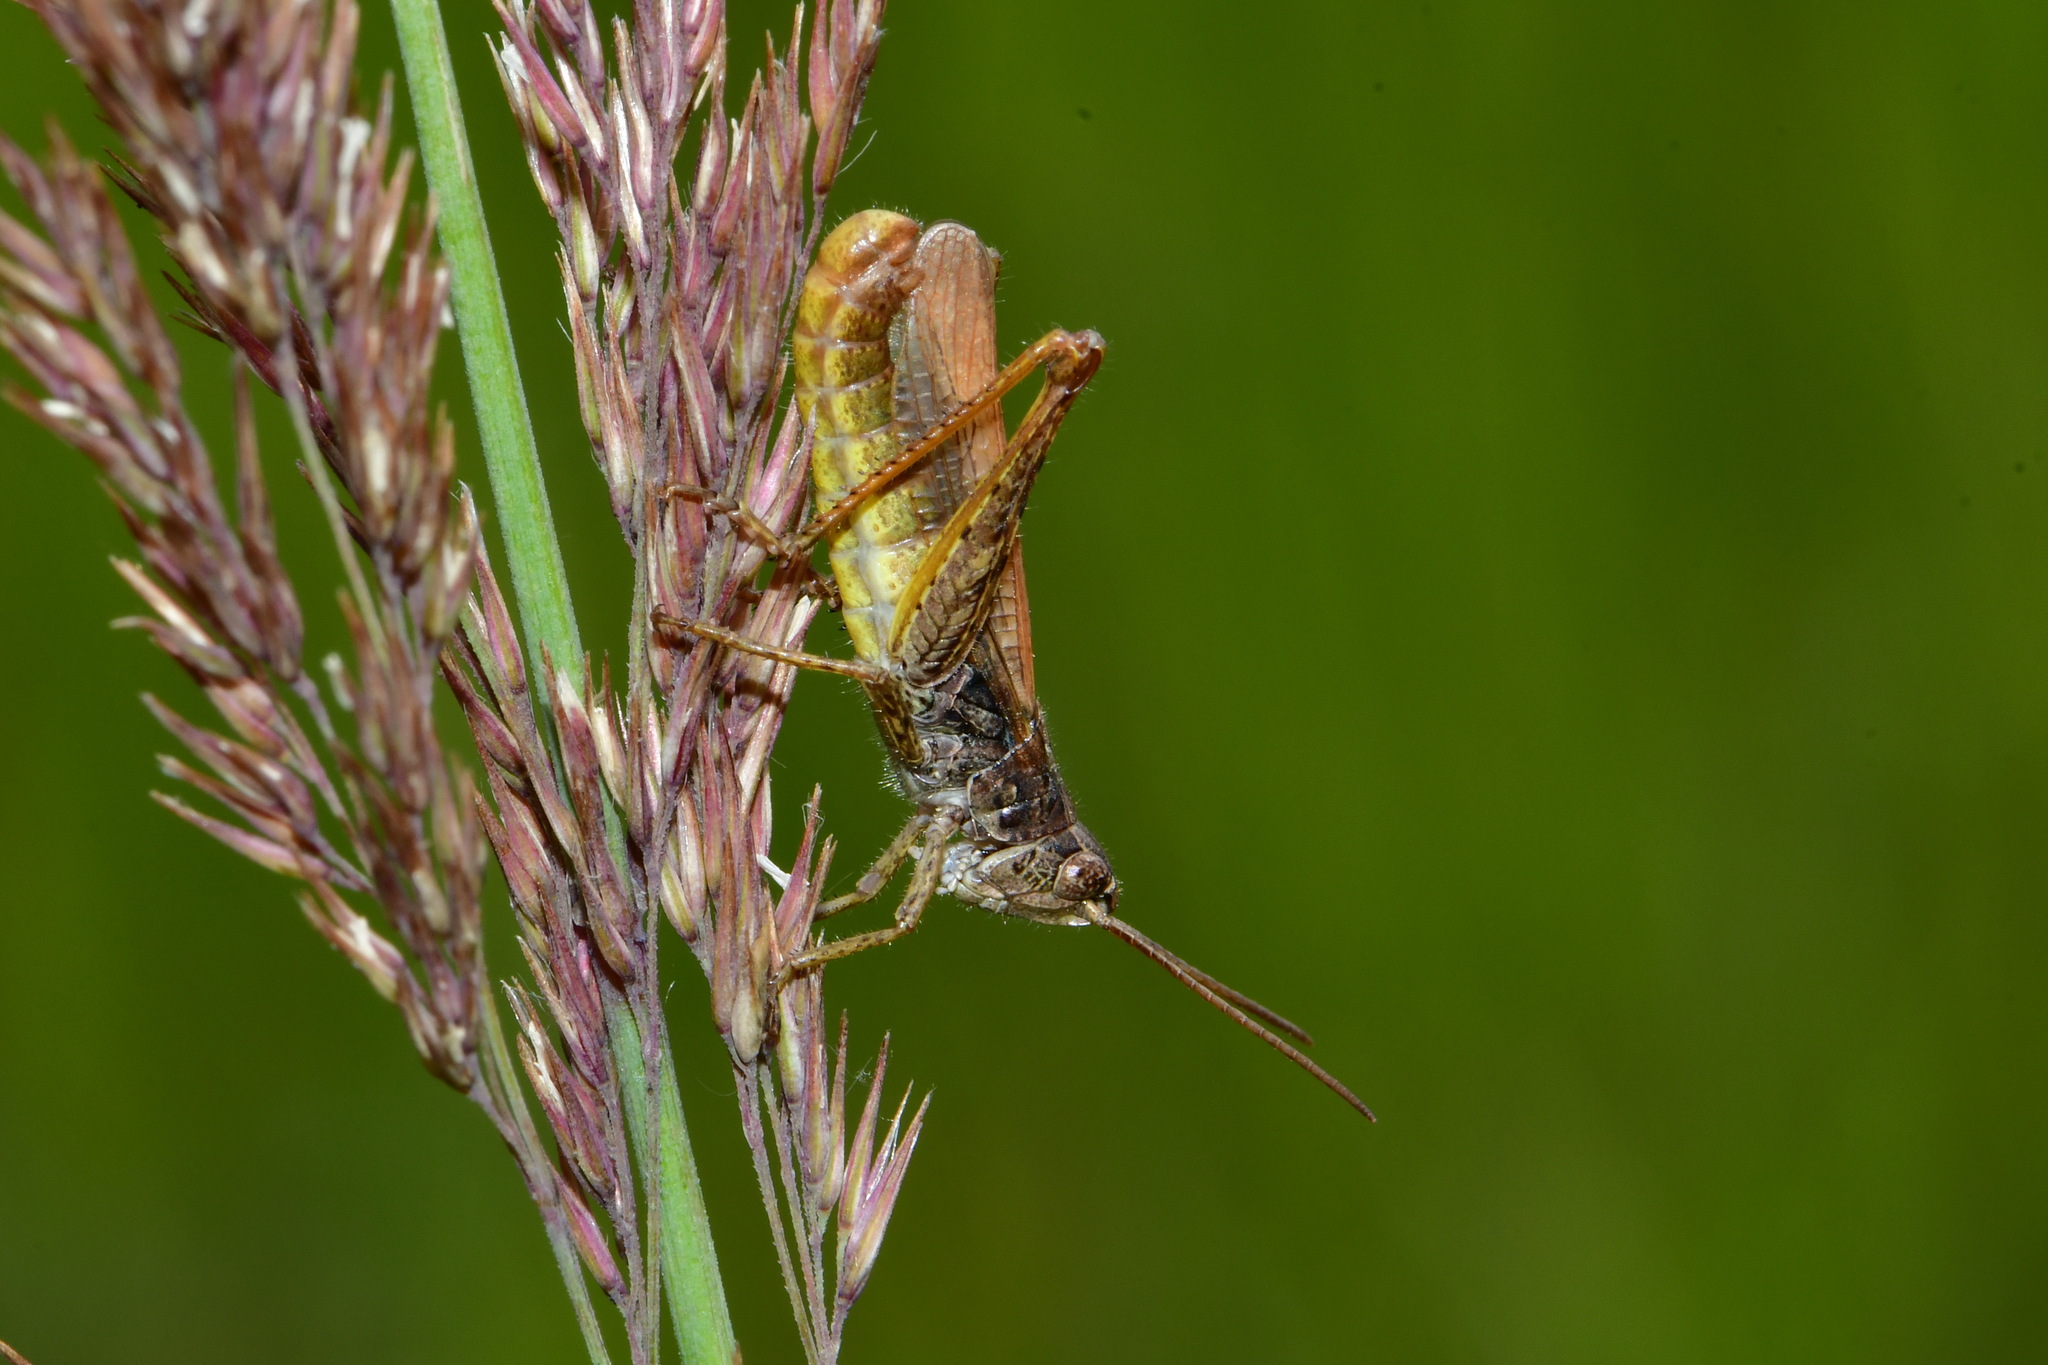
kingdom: Animalia
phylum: Arthropoda
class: Insecta
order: Orthoptera
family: Acrididae
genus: Chorthippus
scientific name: Chorthippus apricarius
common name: Upland field grasshopper
